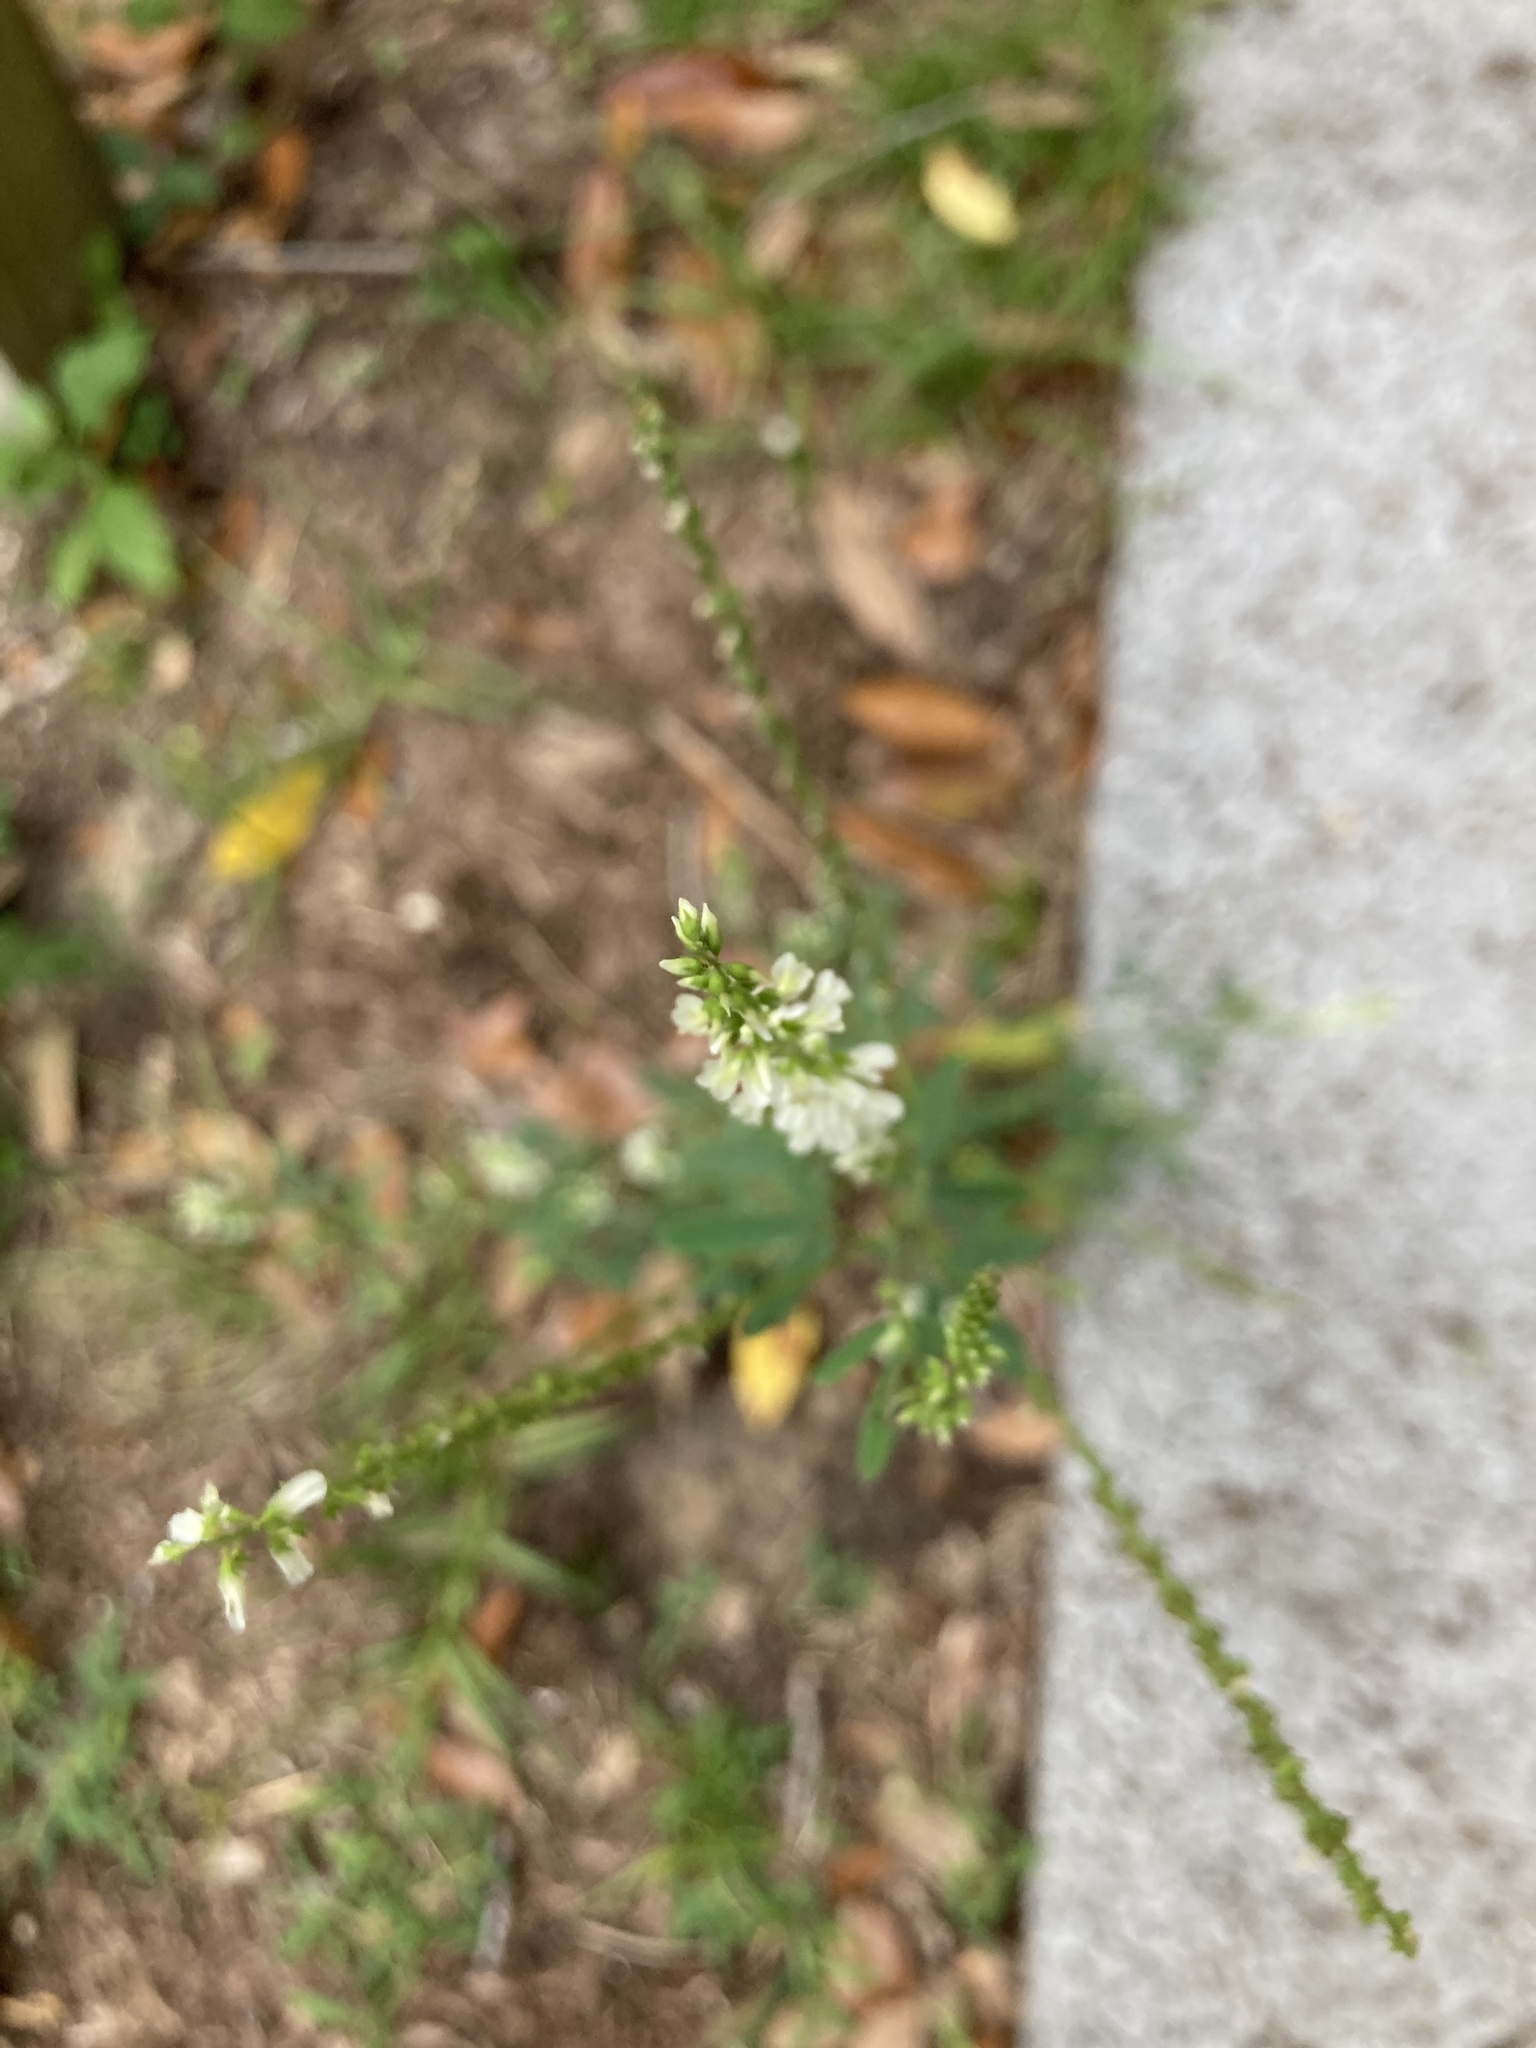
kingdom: Plantae
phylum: Tracheophyta
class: Magnoliopsida
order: Fabales
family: Fabaceae
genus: Melilotus
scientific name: Melilotus albus
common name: White melilot
